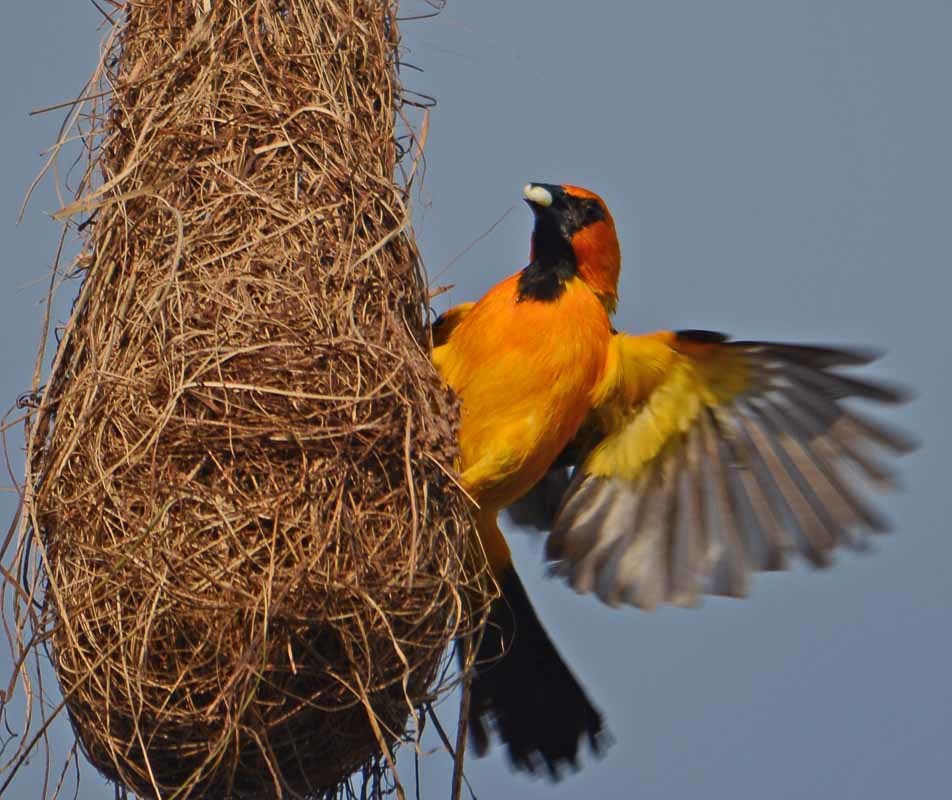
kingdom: Animalia
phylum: Chordata
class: Aves
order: Passeriformes
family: Icteridae
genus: Icterus
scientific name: Icterus gularis
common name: Altamira oriole
